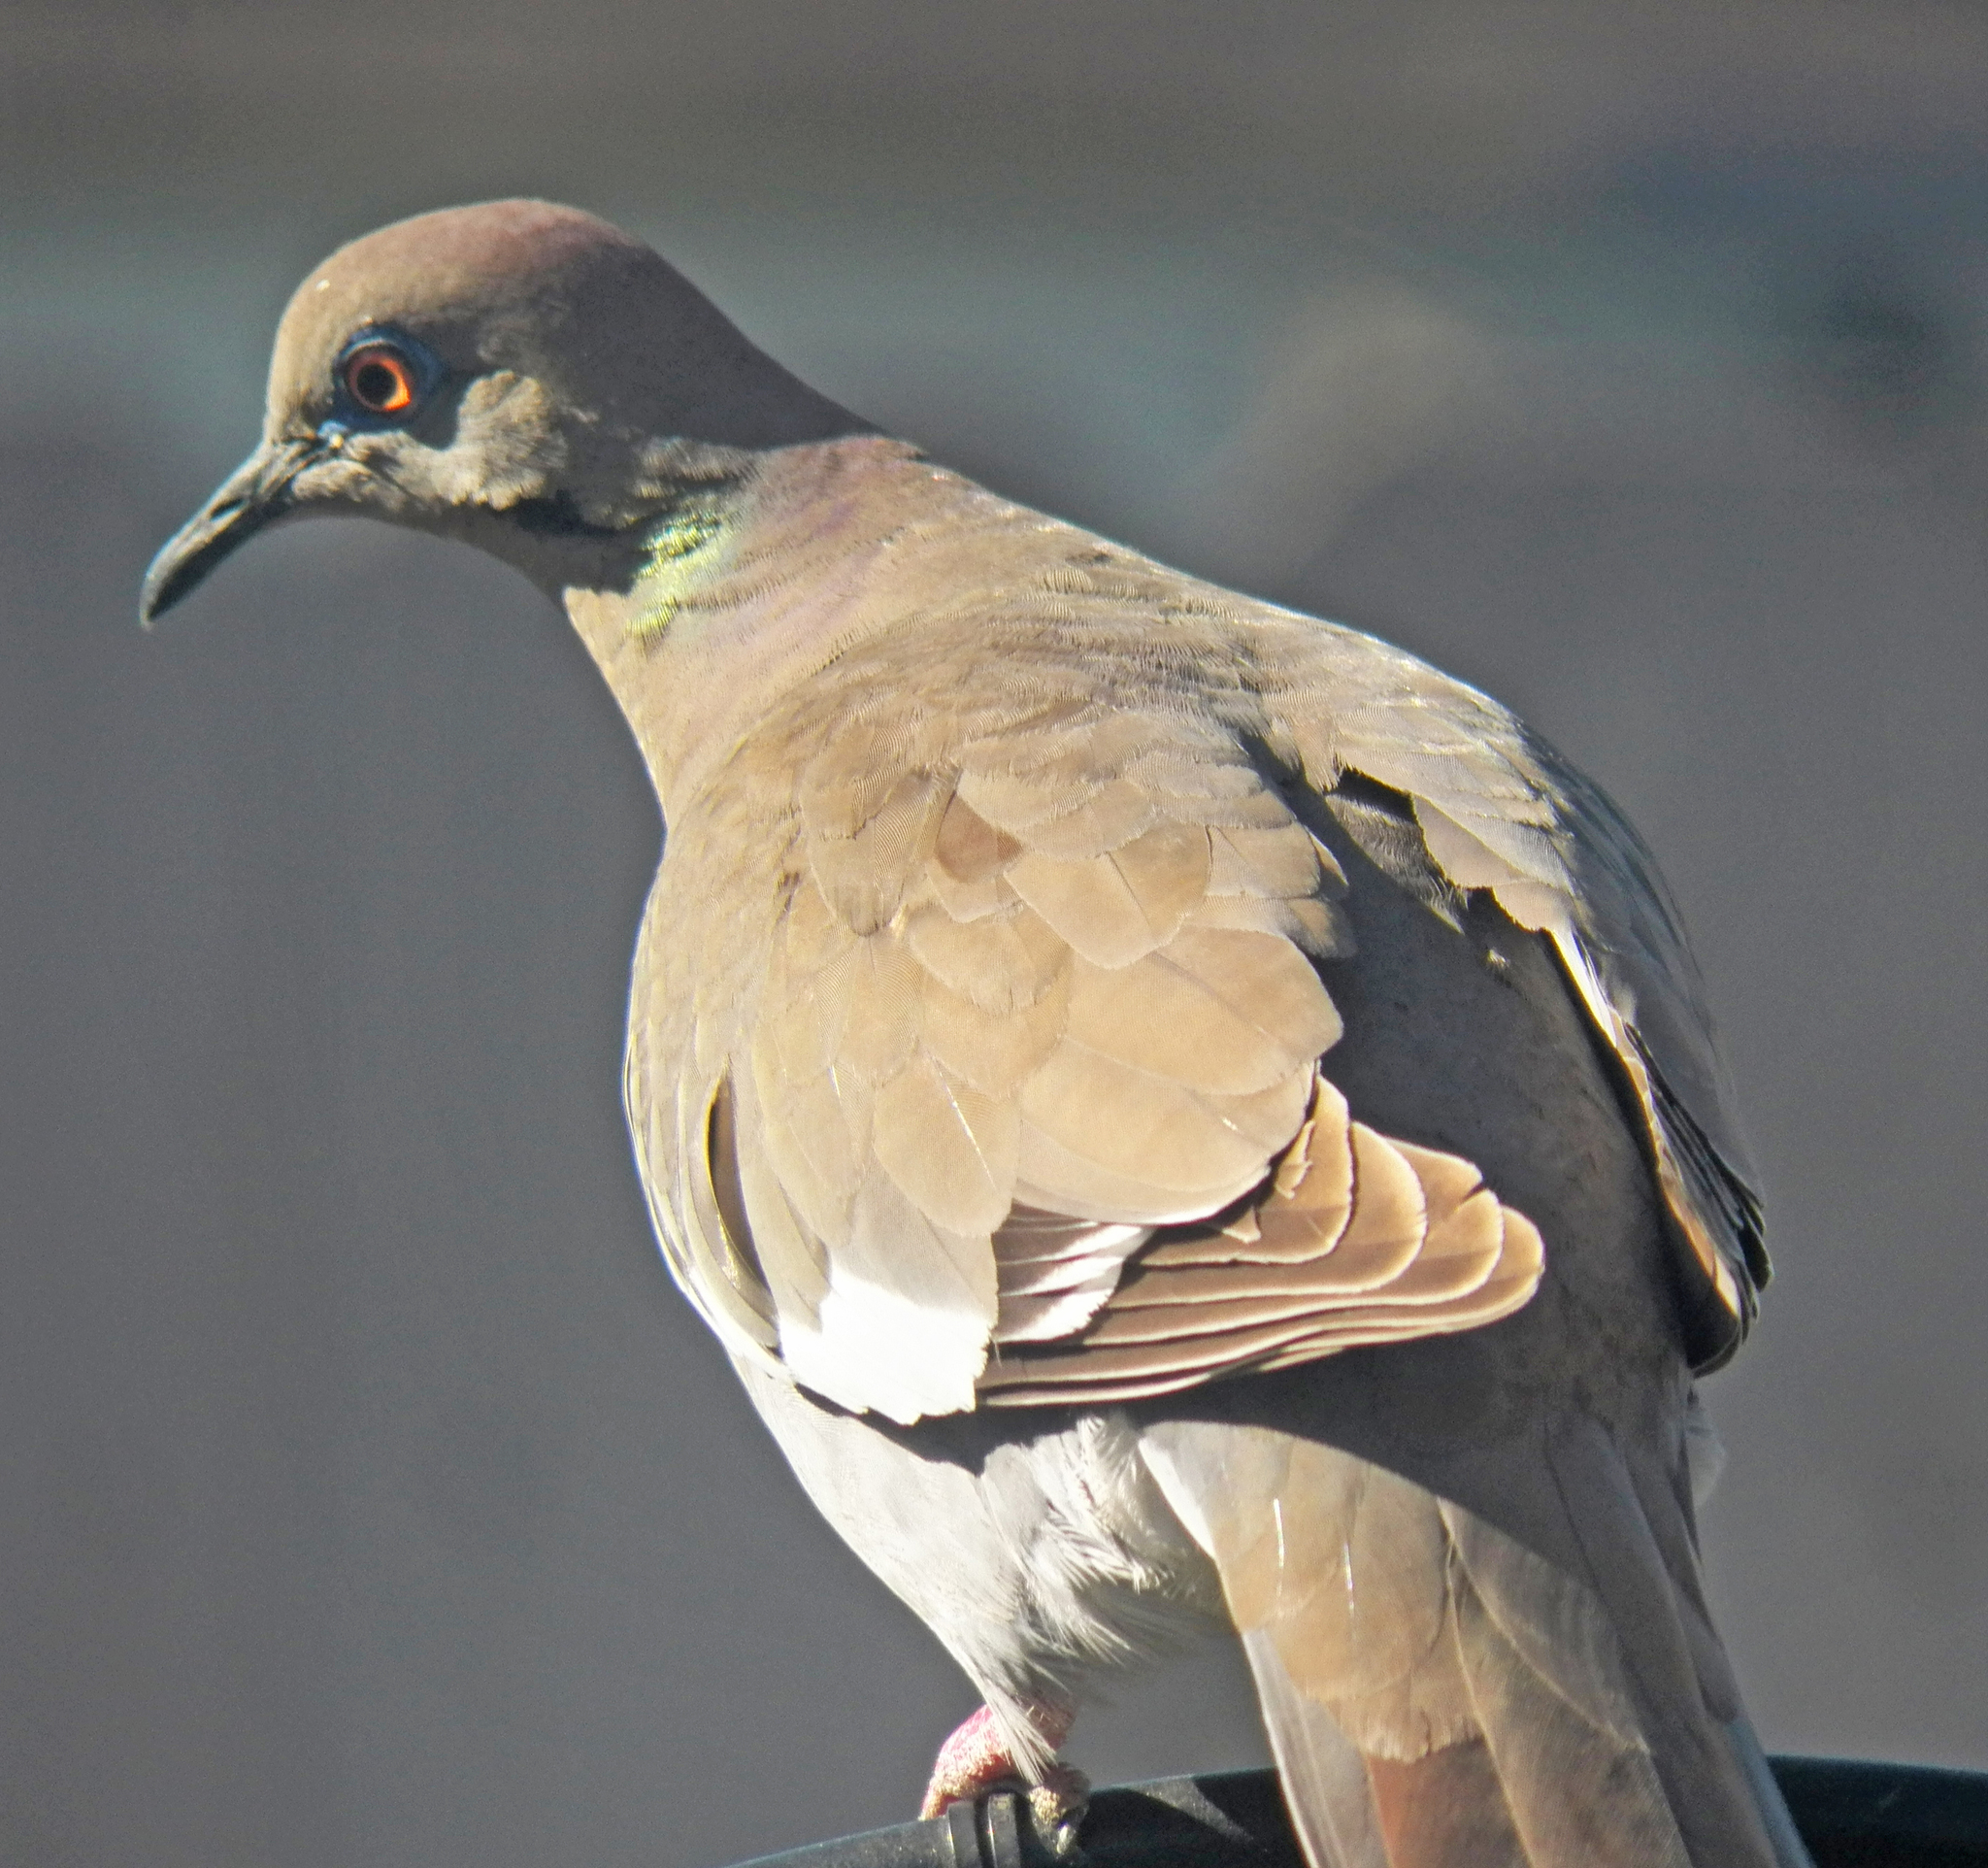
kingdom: Animalia
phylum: Chordata
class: Aves
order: Columbiformes
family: Columbidae
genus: Zenaida
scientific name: Zenaida asiatica
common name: White-winged dove
